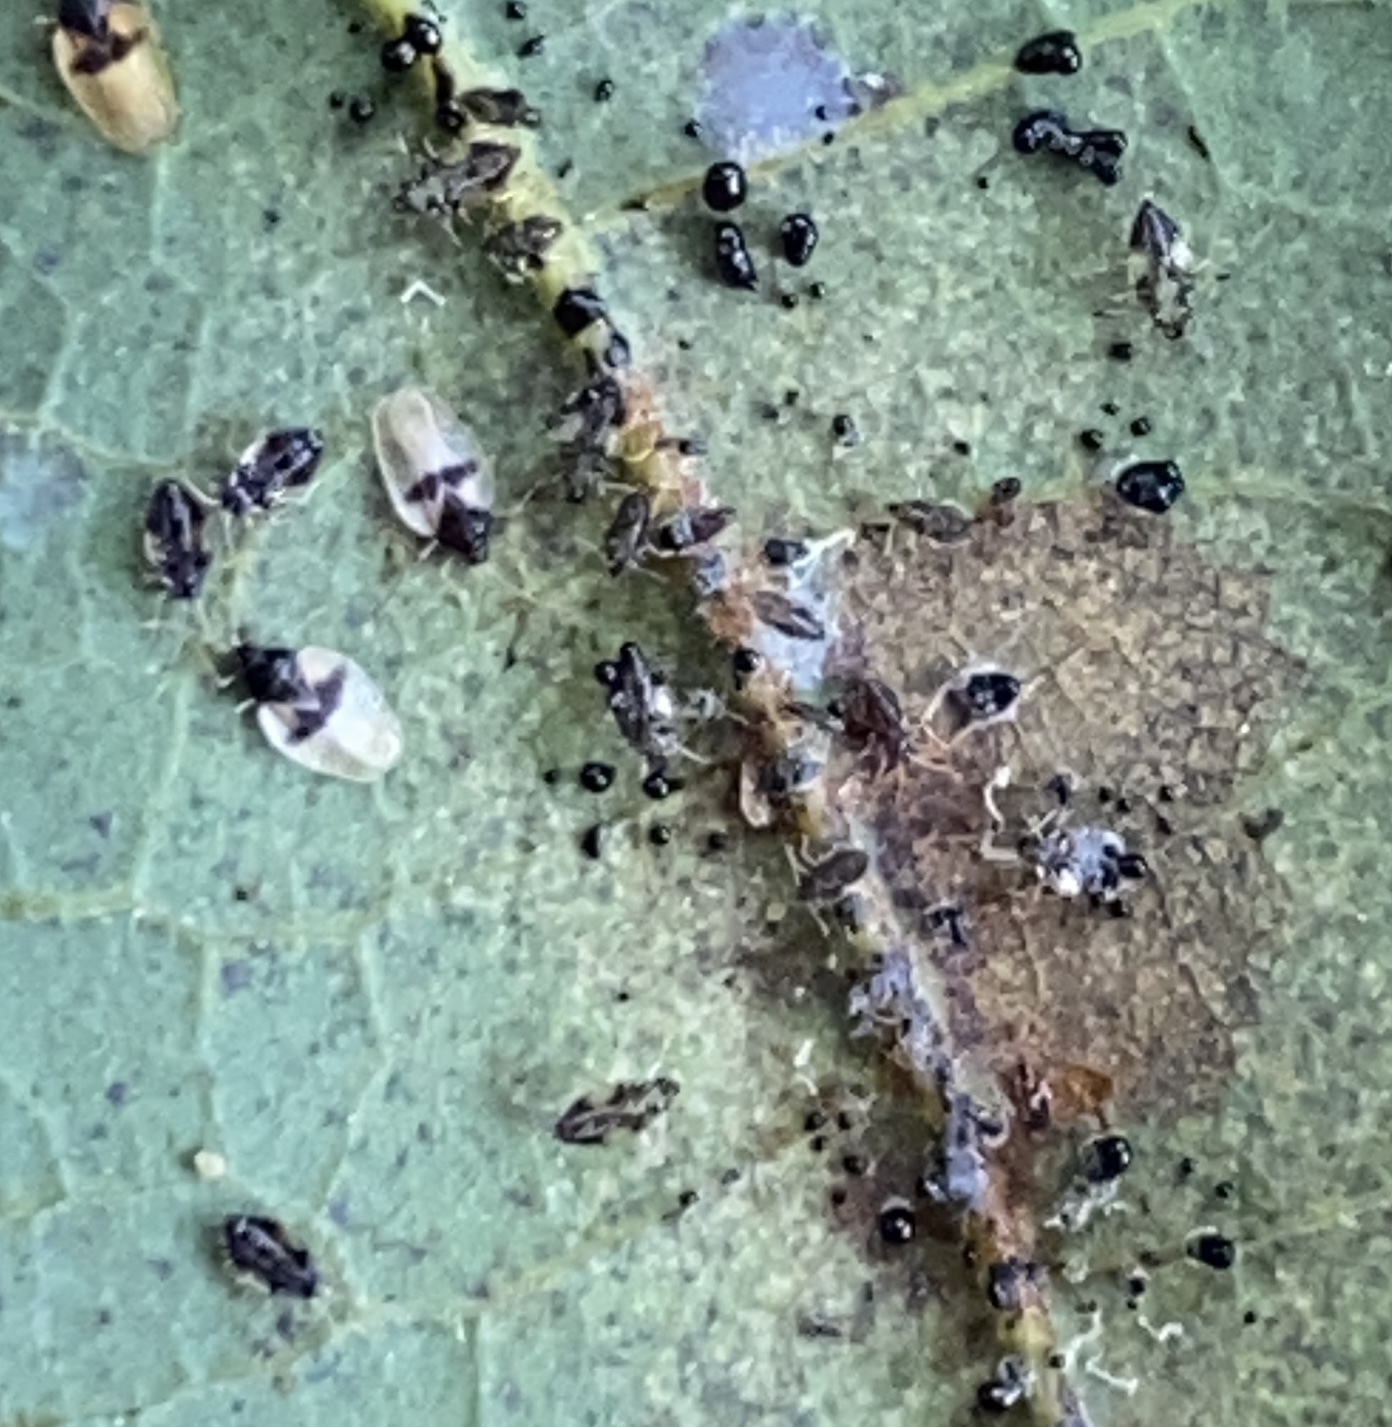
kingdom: Animalia
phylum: Arthropoda
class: Insecta
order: Hemiptera
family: Tingidae
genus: Pseudacysta
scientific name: Pseudacysta perseae
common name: Avocado lace bug
